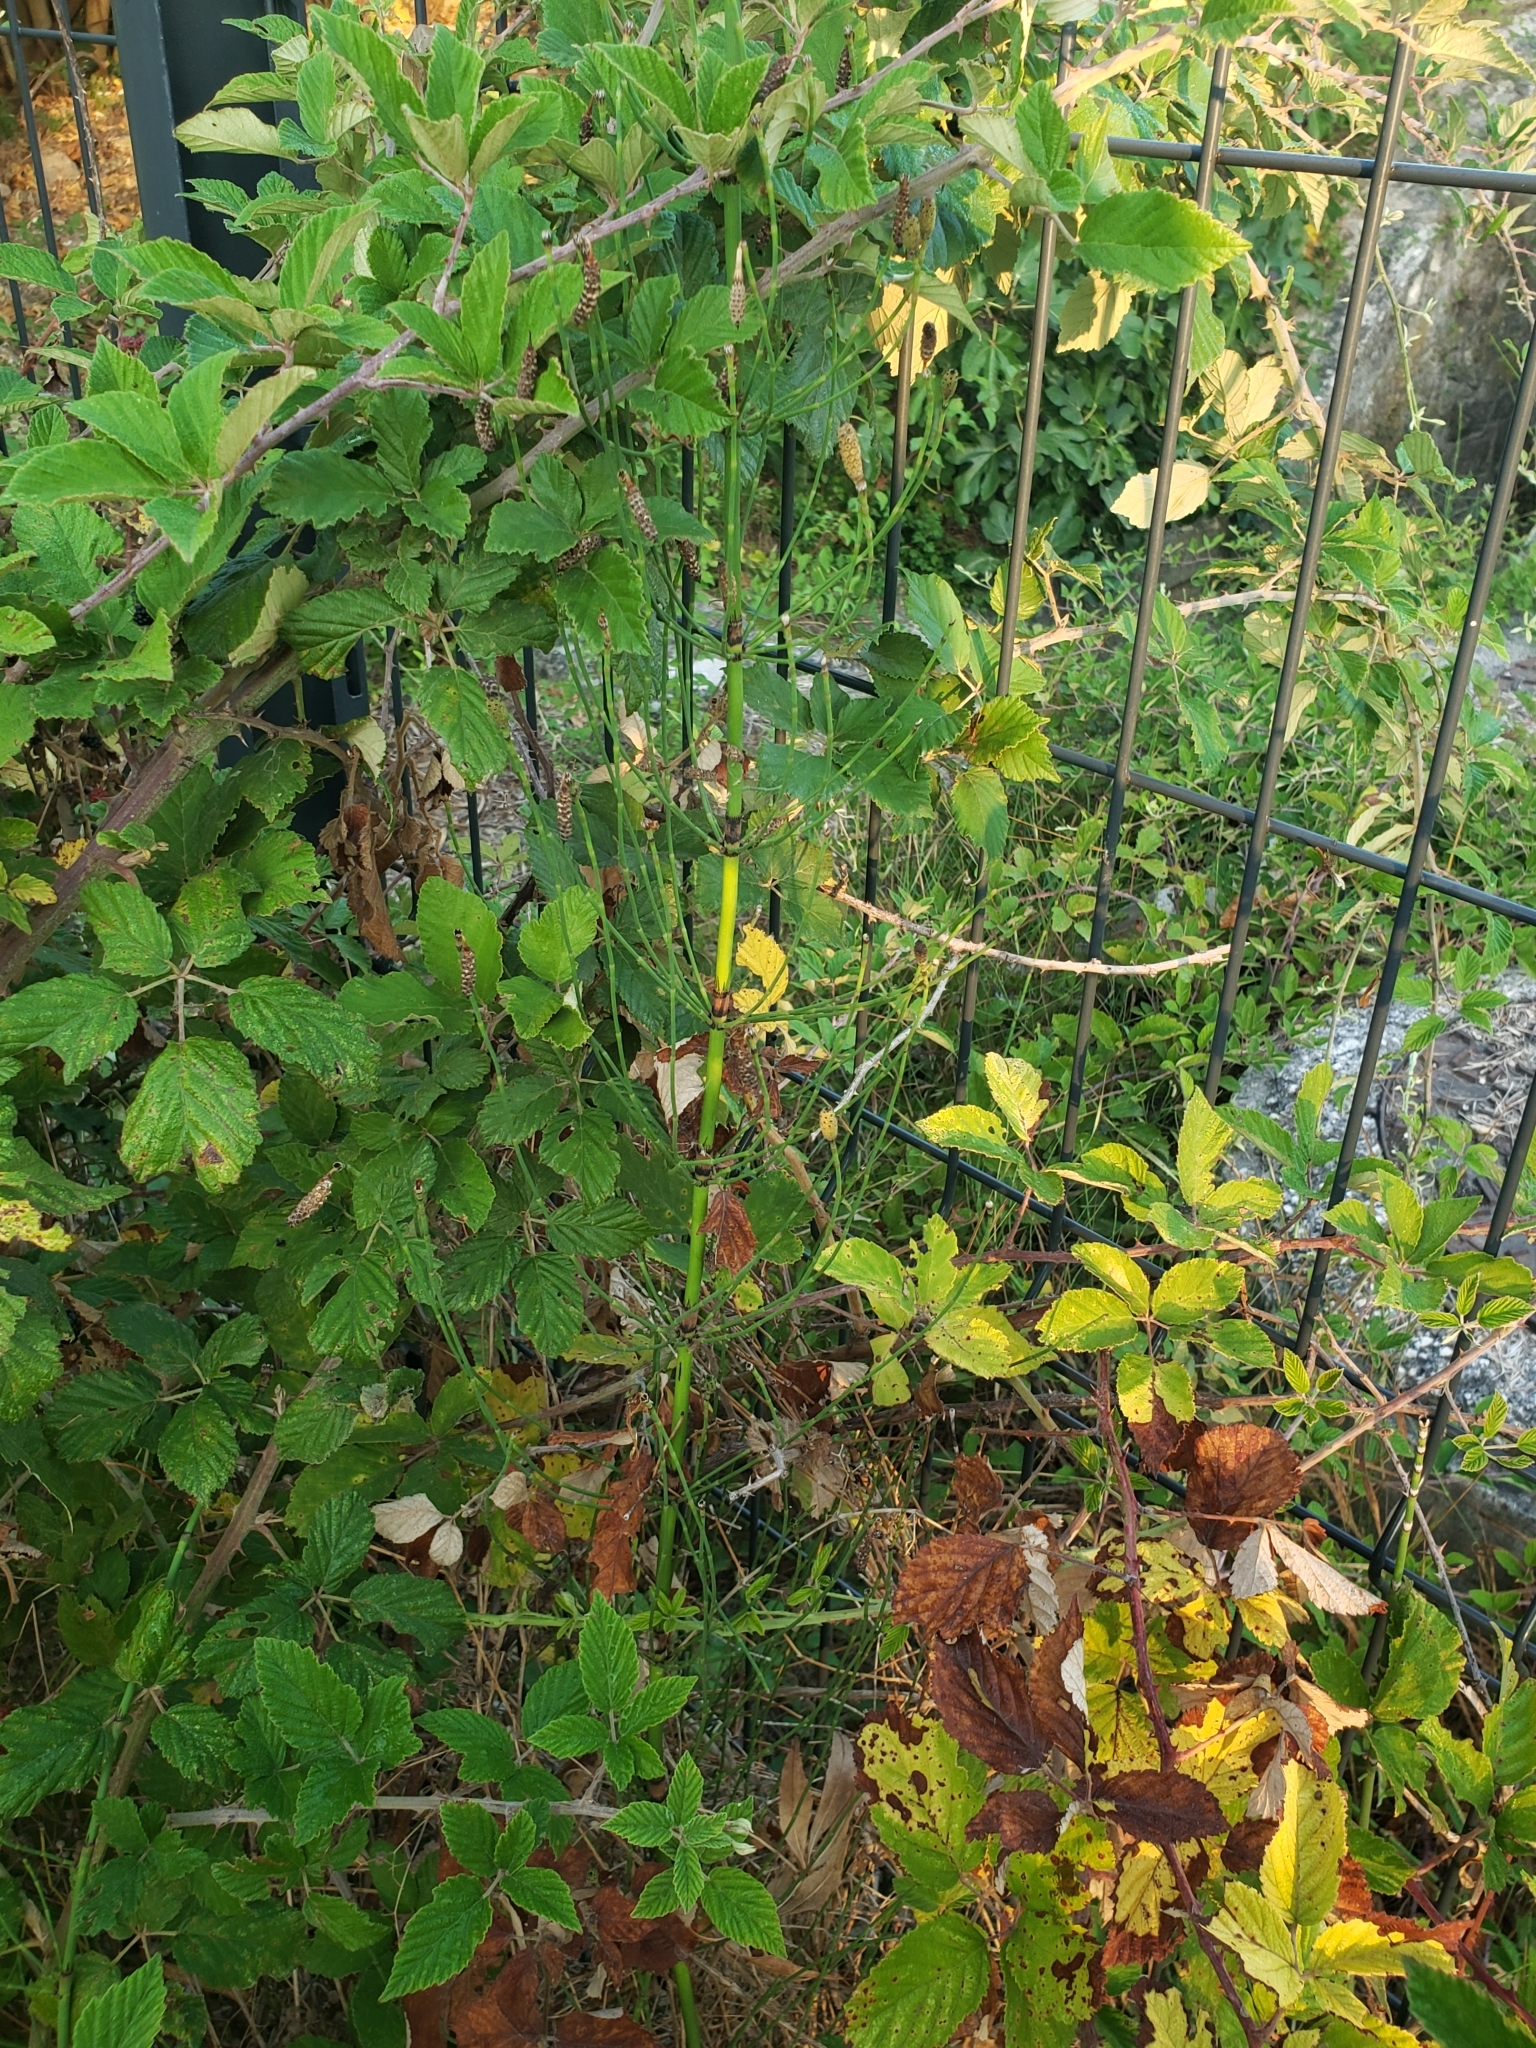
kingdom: Plantae
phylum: Tracheophyta
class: Polypodiopsida
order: Equisetales
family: Equisetaceae
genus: Equisetum
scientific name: Equisetum ramosissimum
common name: Branched horsetail
